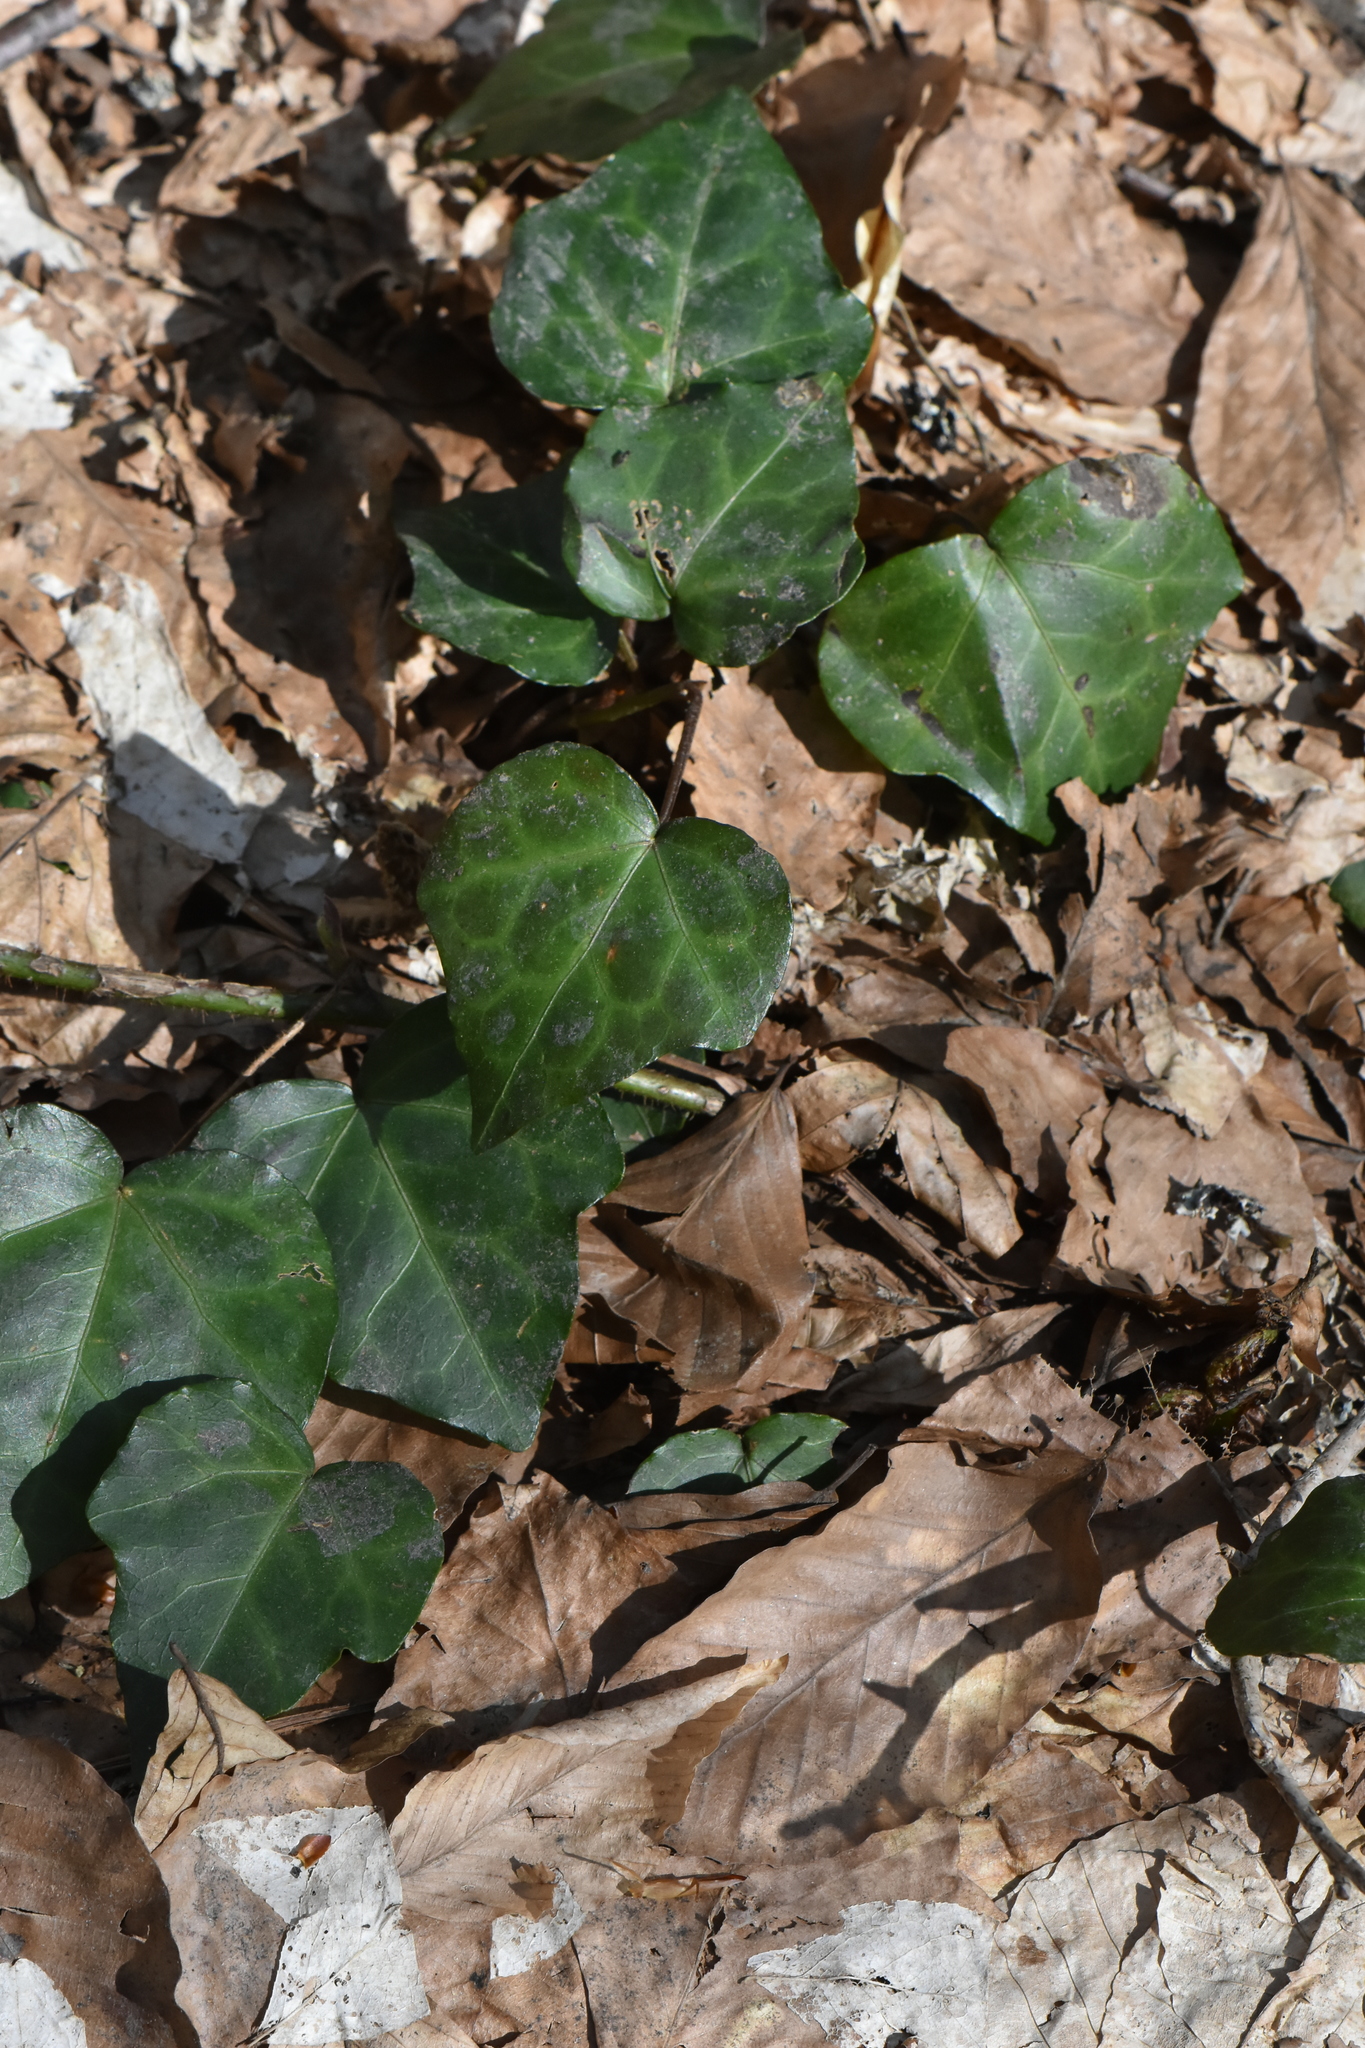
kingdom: Plantae
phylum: Tracheophyta
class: Magnoliopsida
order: Apiales
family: Araliaceae
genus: Hedera
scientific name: Hedera colchica
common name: Persian ivy
